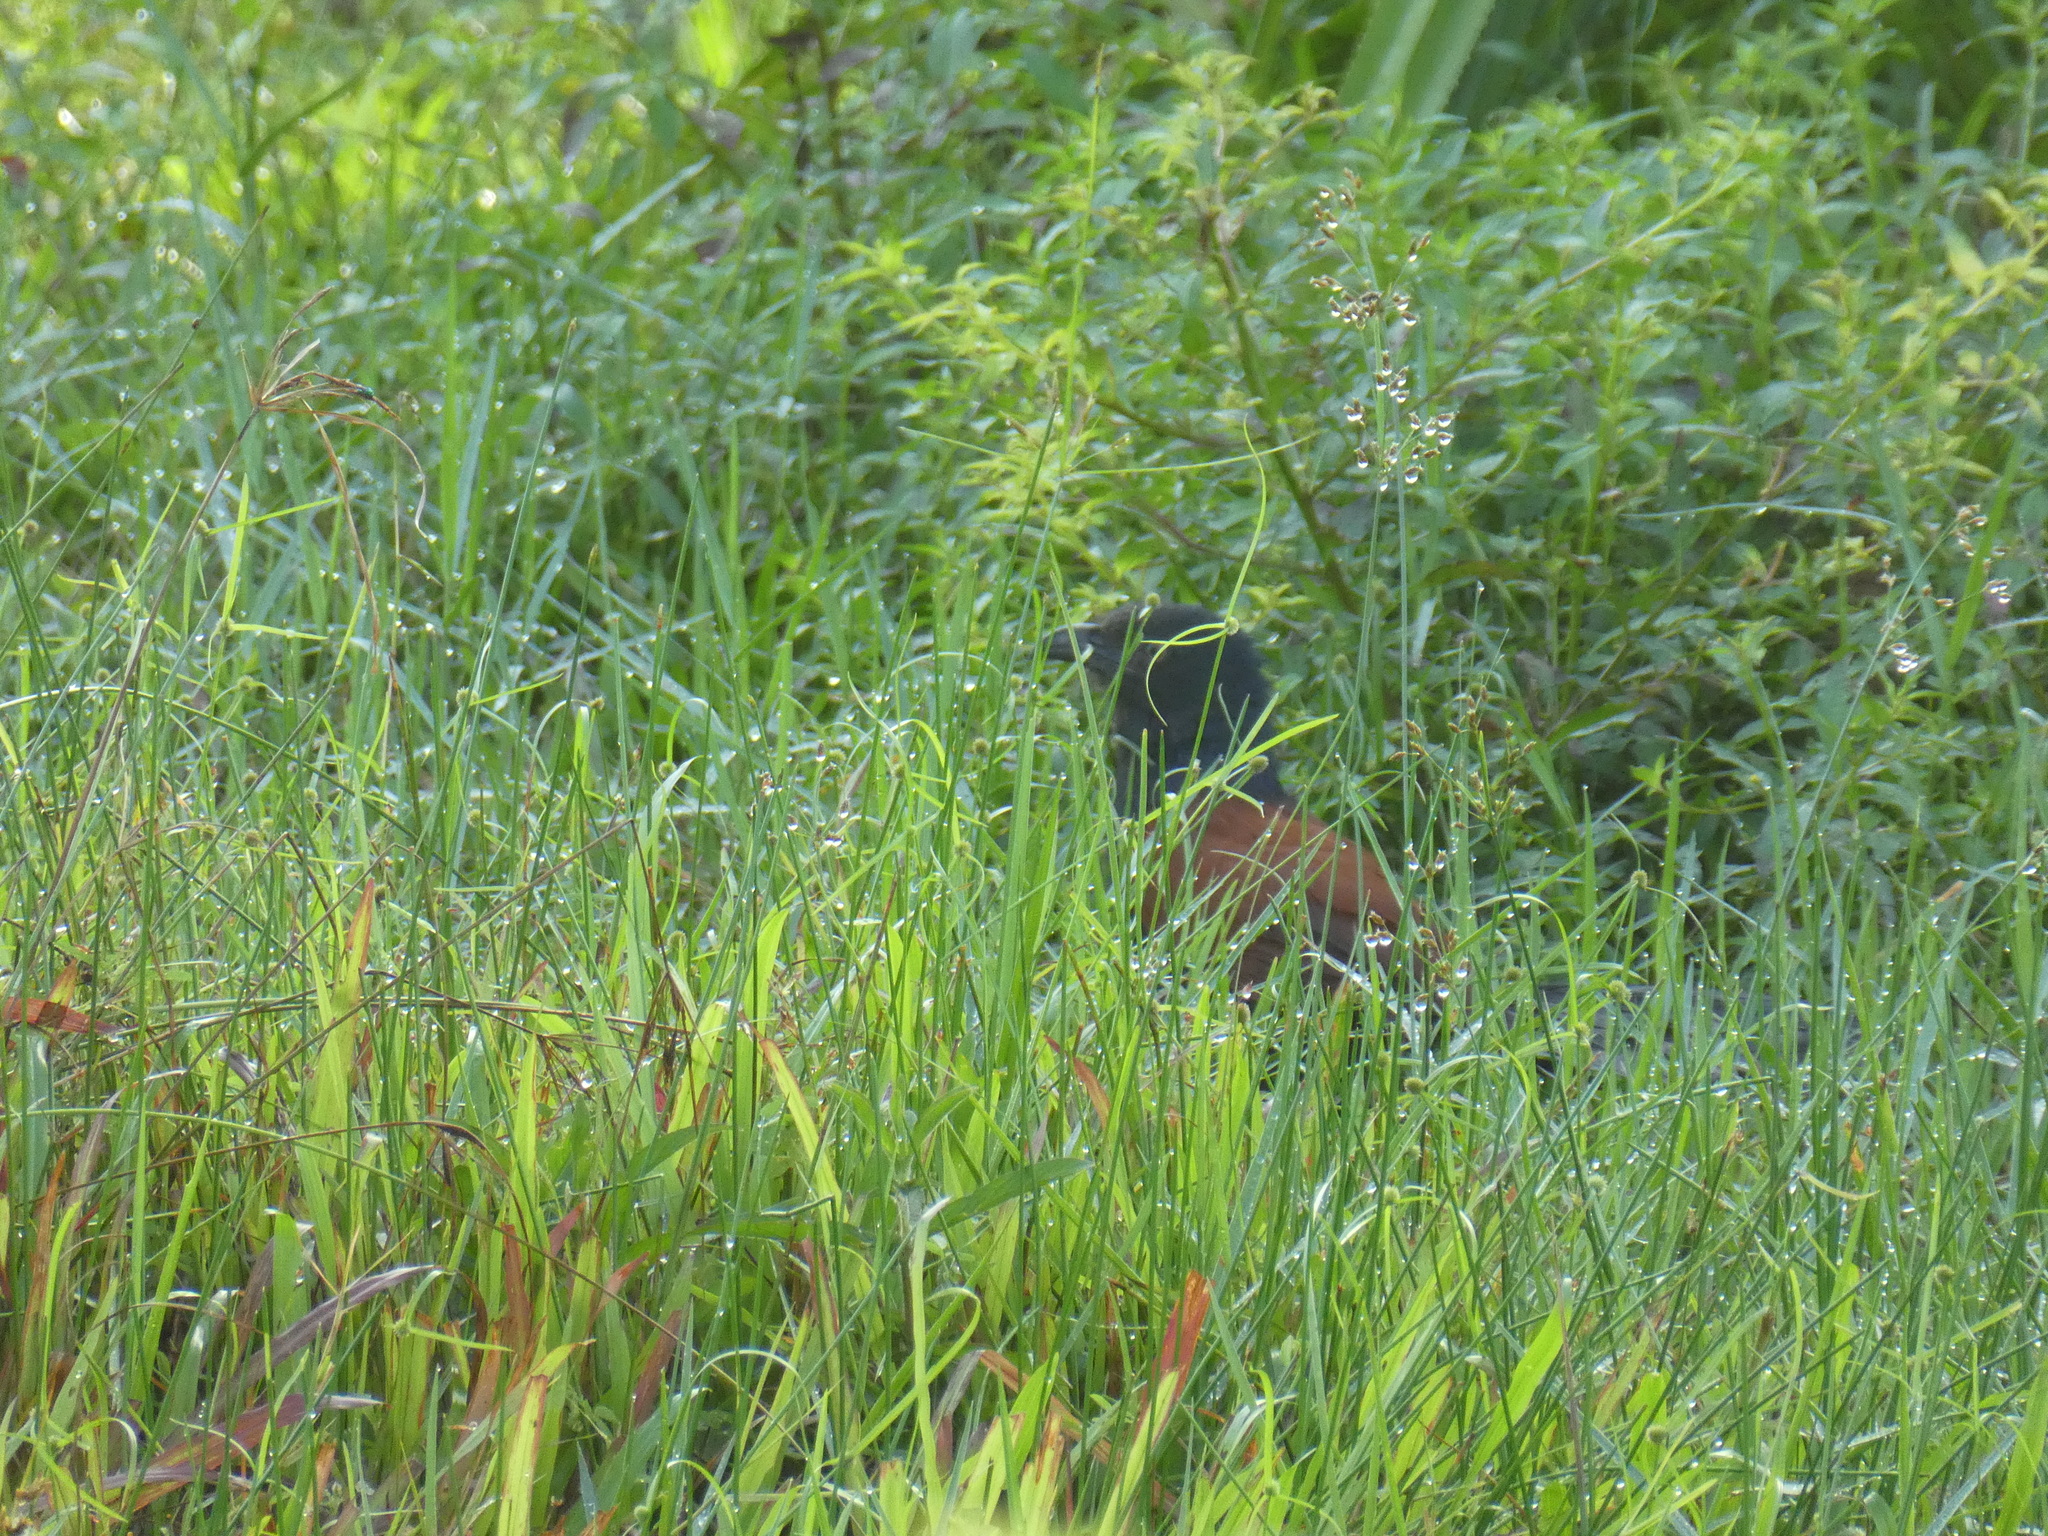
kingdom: Animalia
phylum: Chordata
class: Aves
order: Cuculiformes
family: Cuculidae
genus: Centropus
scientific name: Centropus sinensis
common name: Greater coucal
